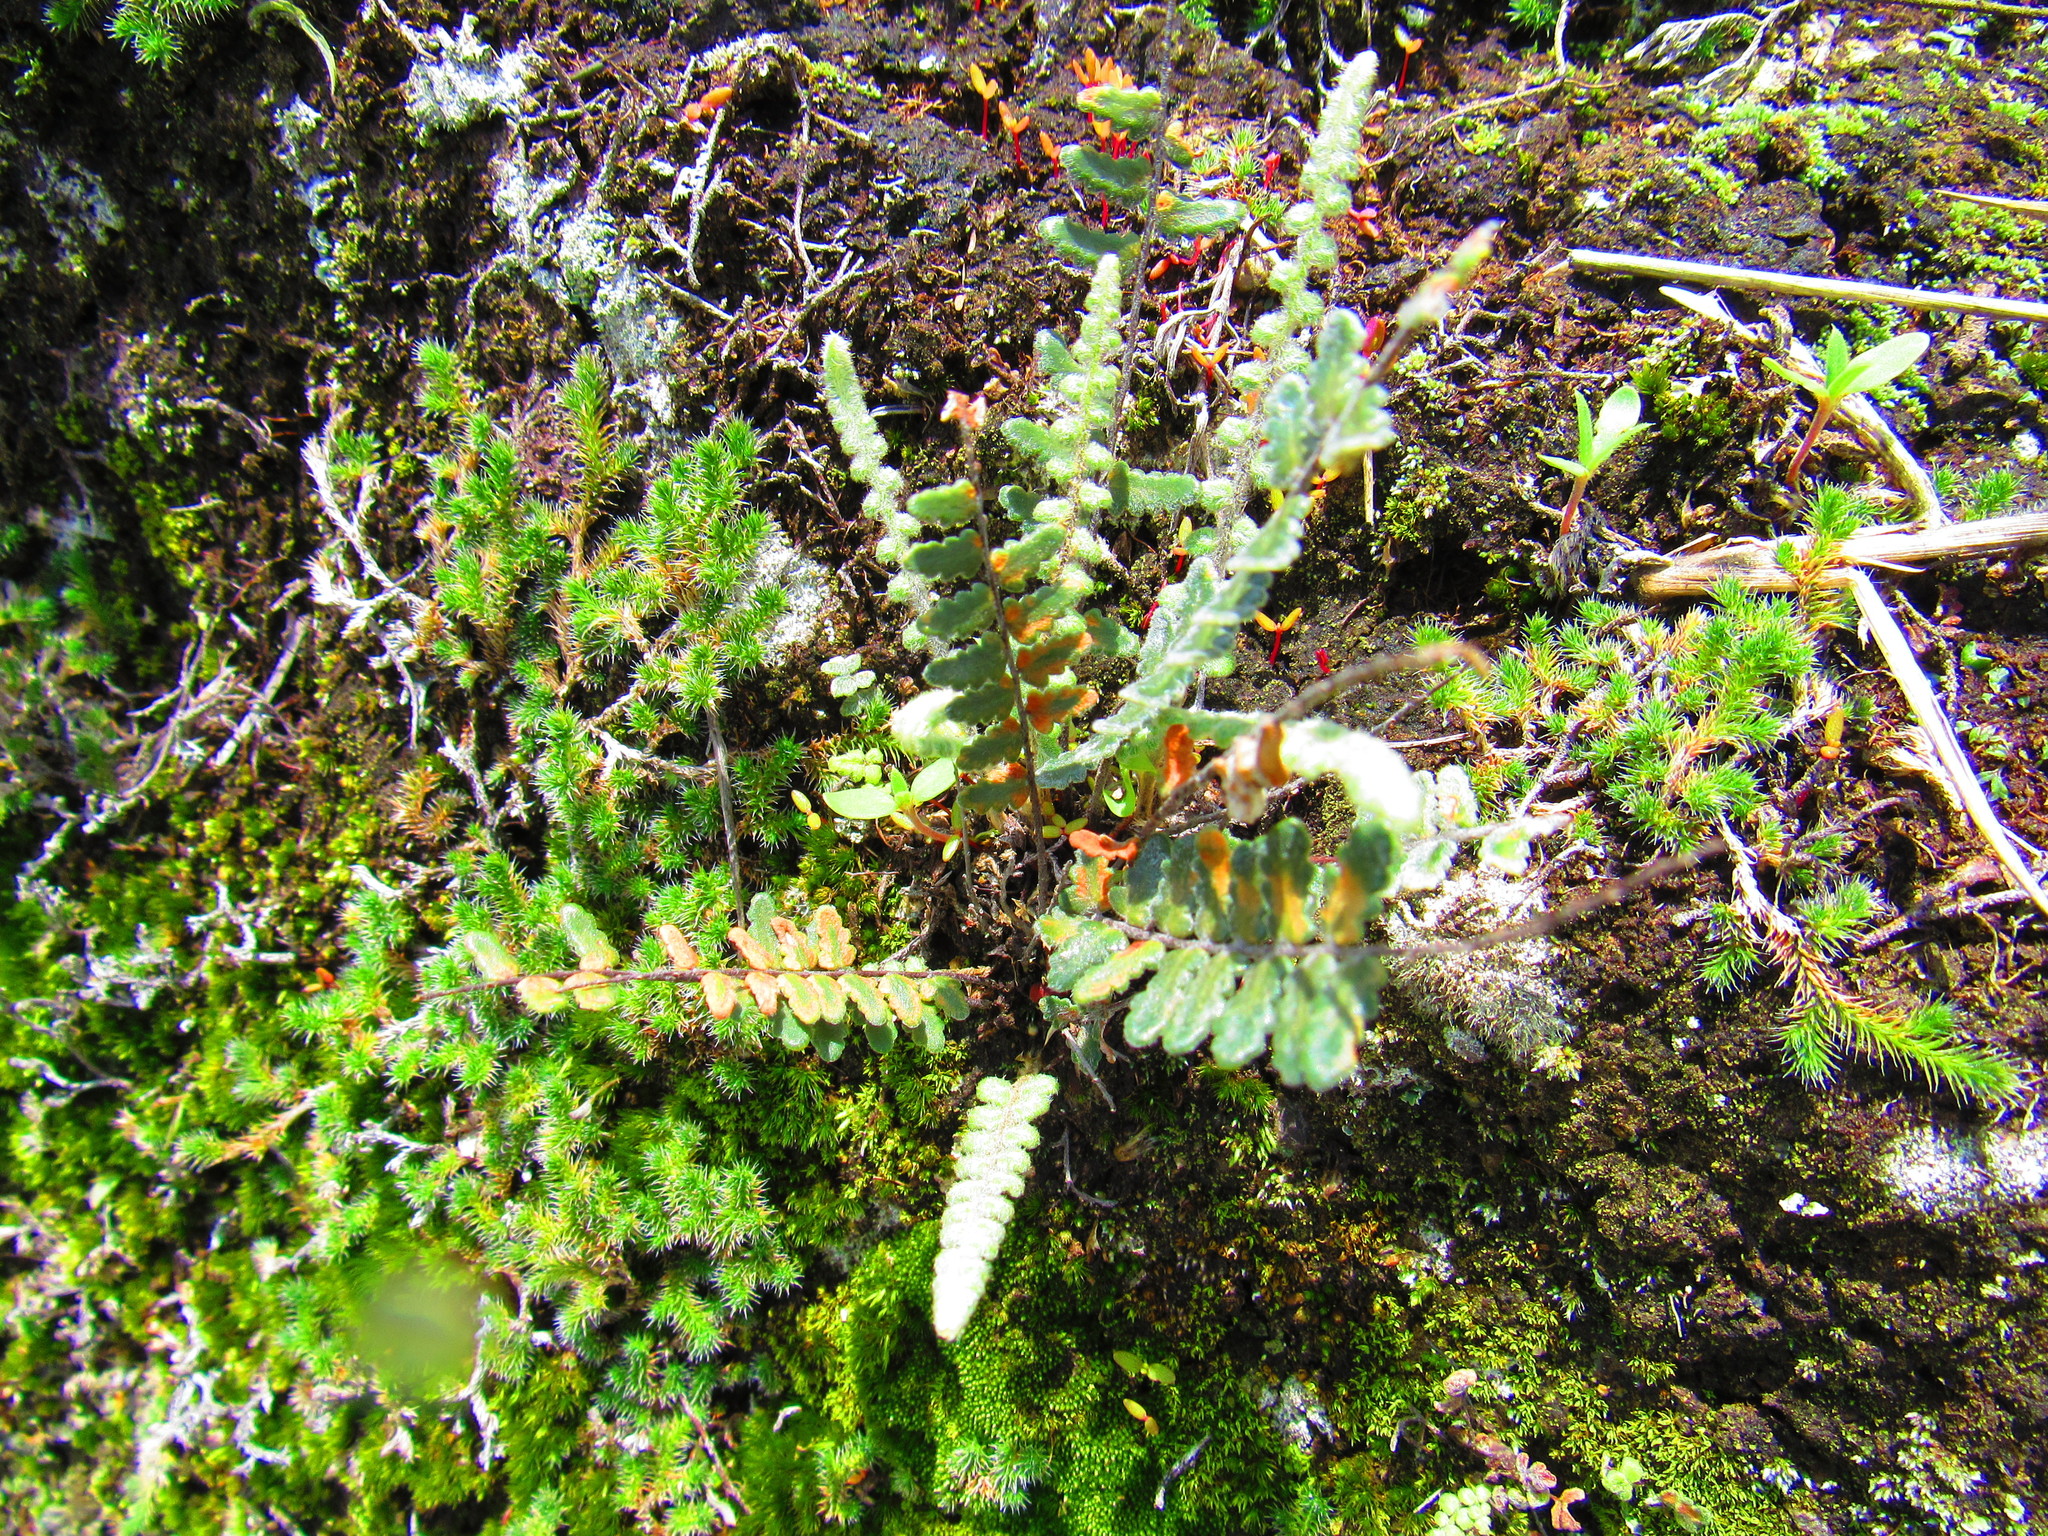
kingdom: Plantae
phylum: Tracheophyta
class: Polypodiopsida
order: Polypodiales
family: Pteridaceae
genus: Myriopteris
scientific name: Myriopteris aurea
